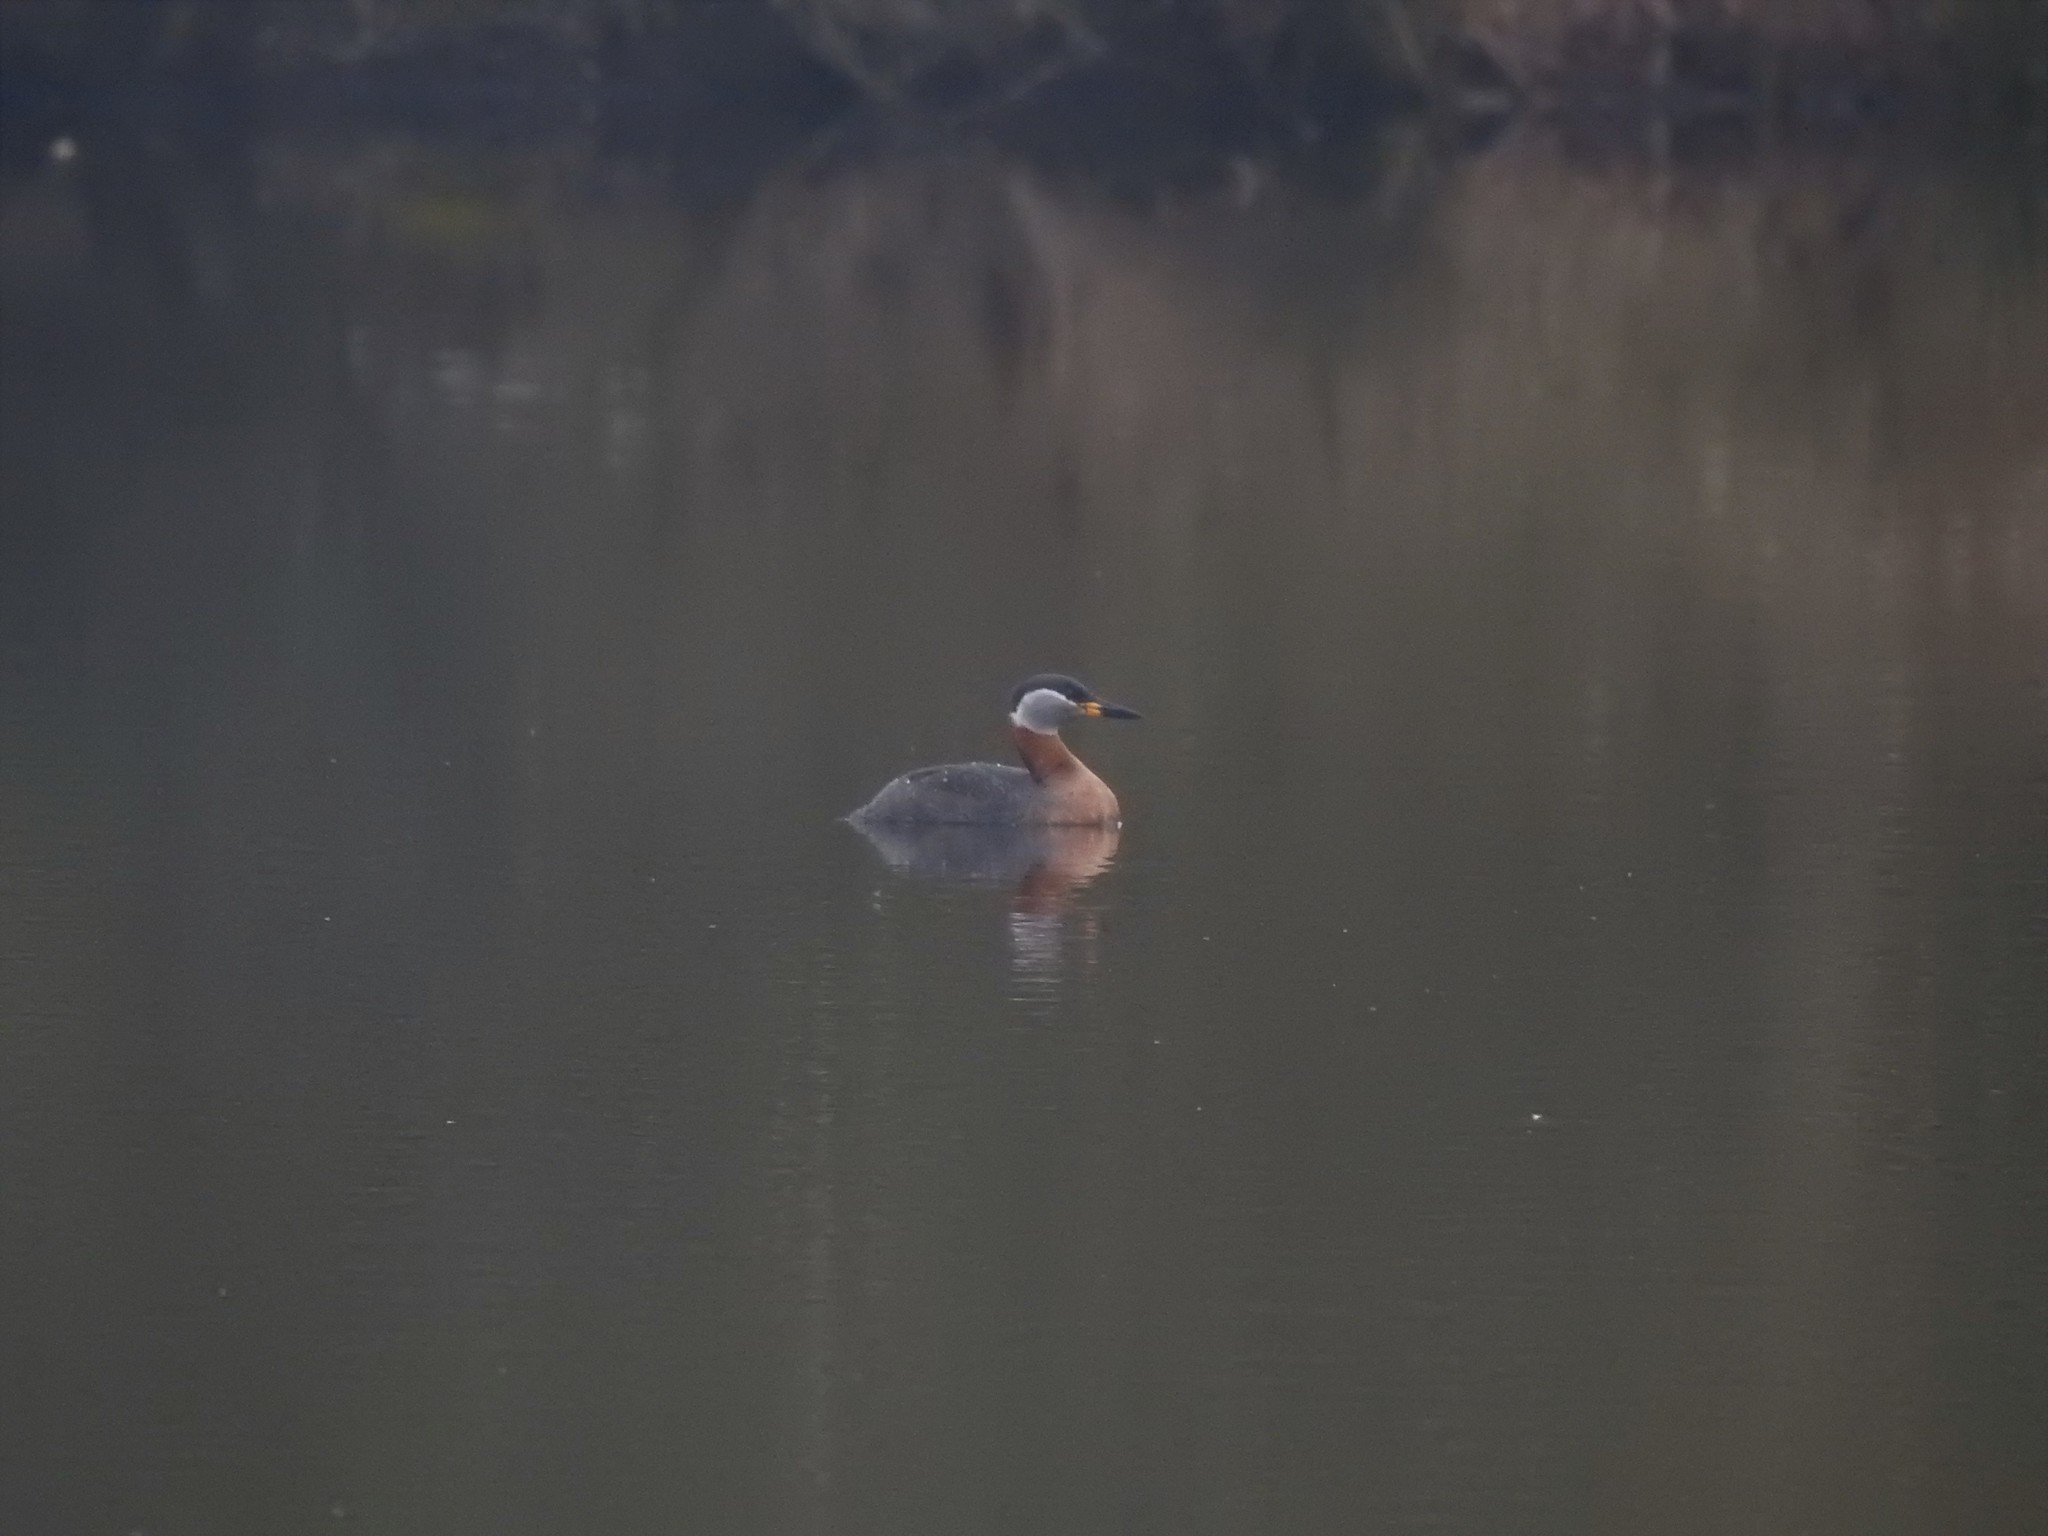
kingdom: Animalia
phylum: Chordata
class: Aves
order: Podicipediformes
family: Podicipedidae
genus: Podiceps
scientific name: Podiceps grisegena
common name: Red-necked grebe
